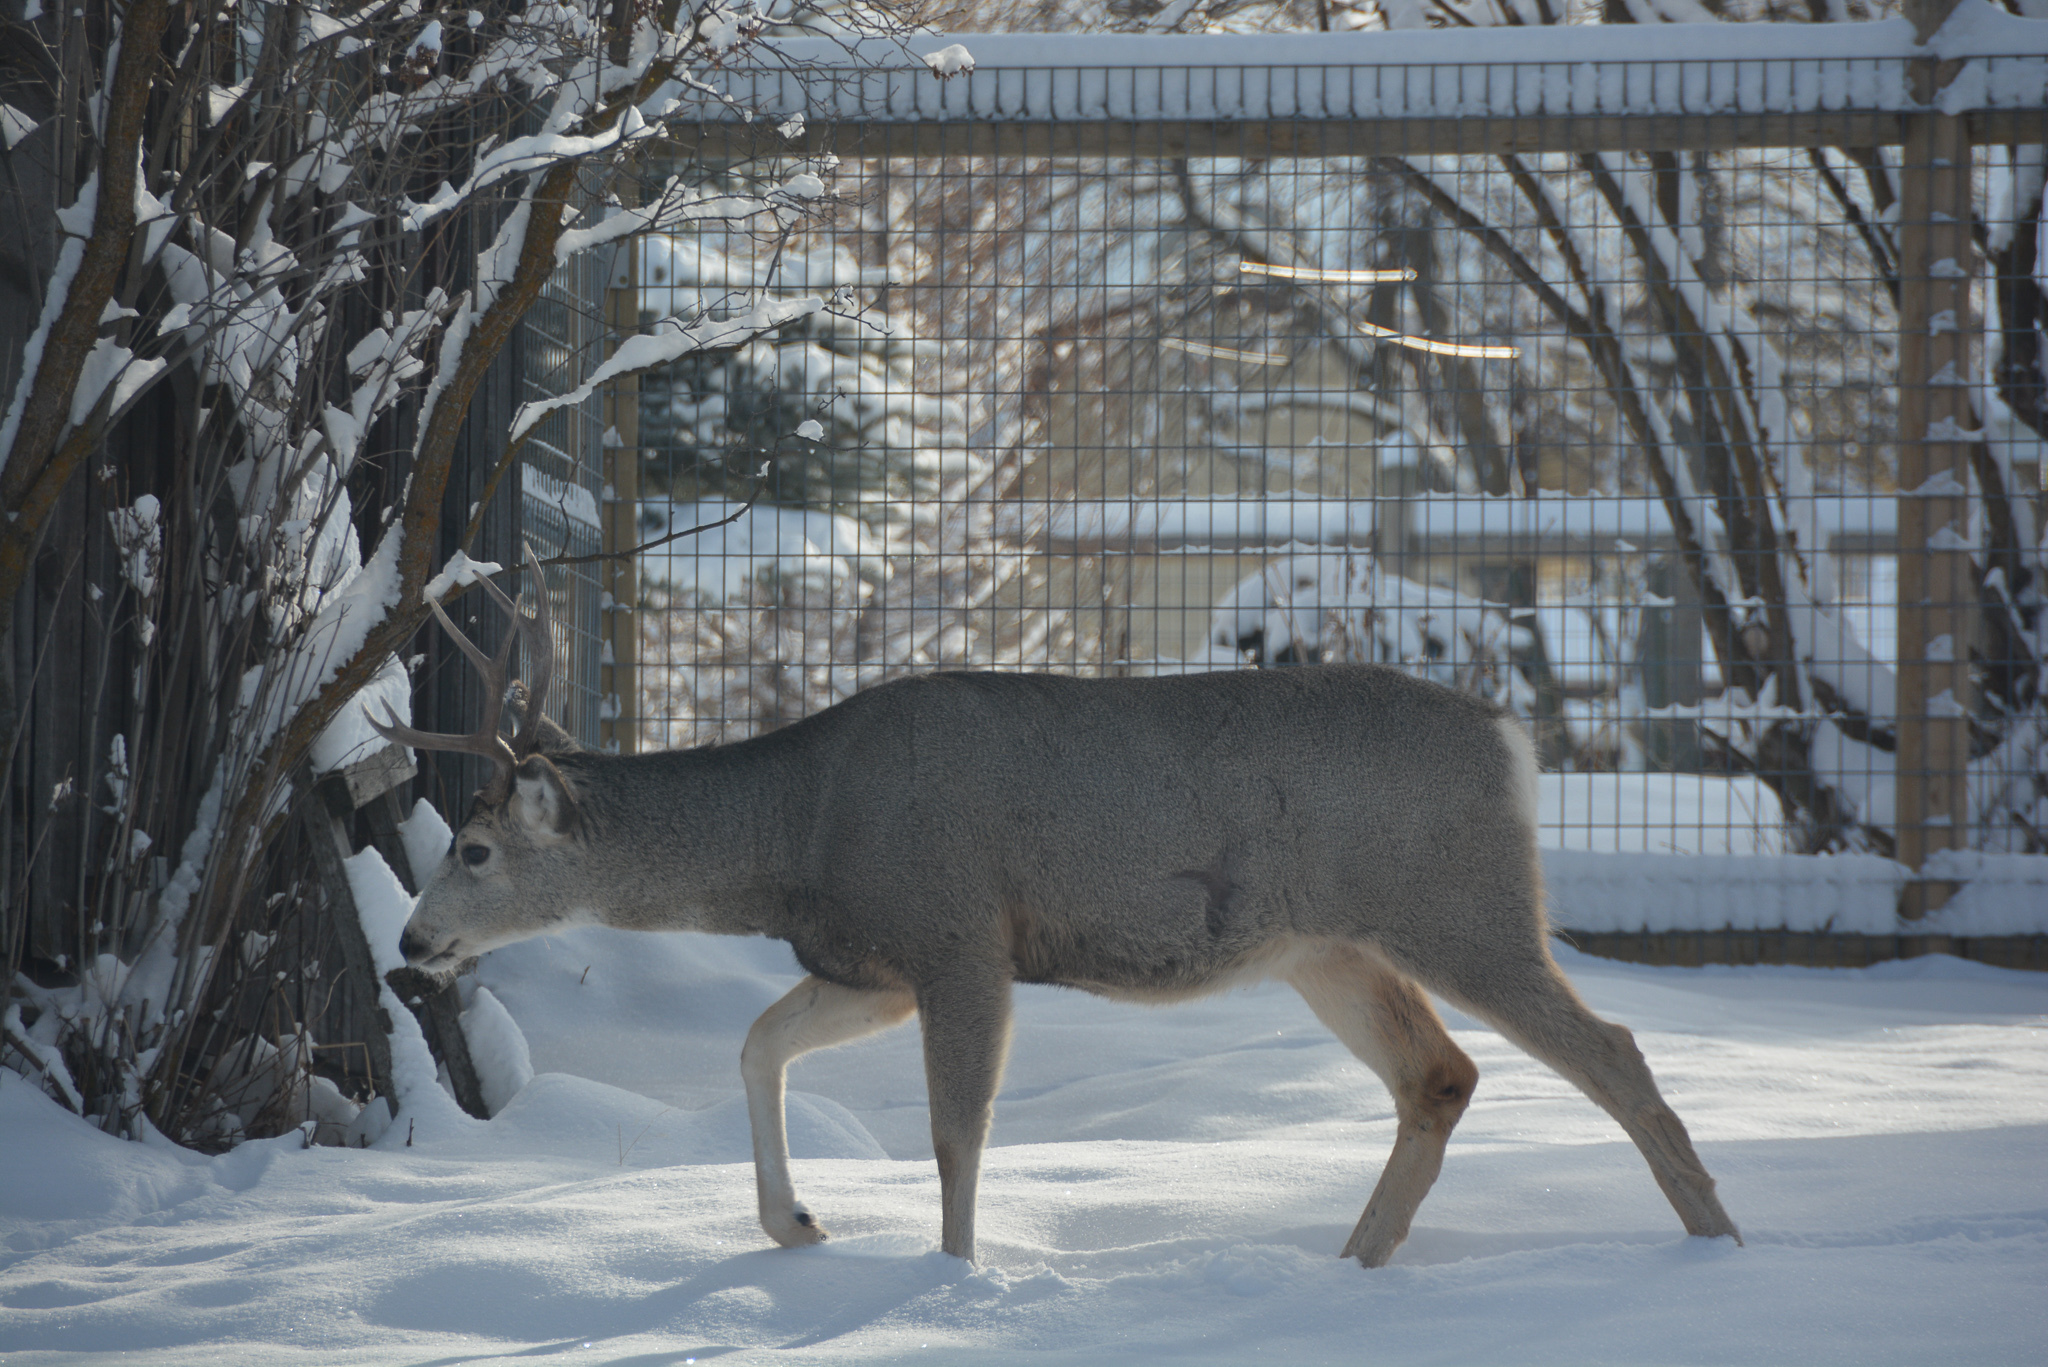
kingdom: Animalia
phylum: Chordata
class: Mammalia
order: Artiodactyla
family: Cervidae
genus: Odocoileus
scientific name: Odocoileus hemionus
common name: Mule deer
